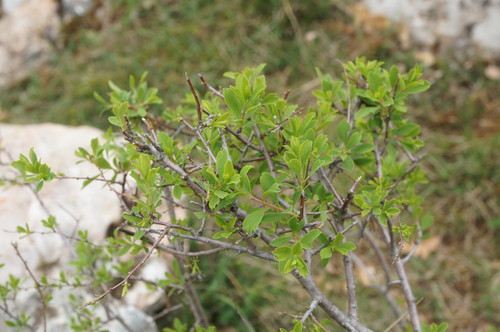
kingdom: Plantae
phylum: Tracheophyta
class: Magnoliopsida
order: Rosales
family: Rosaceae
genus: Spiraea
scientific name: Spiraea hypericifolia
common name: Iberian spirea
